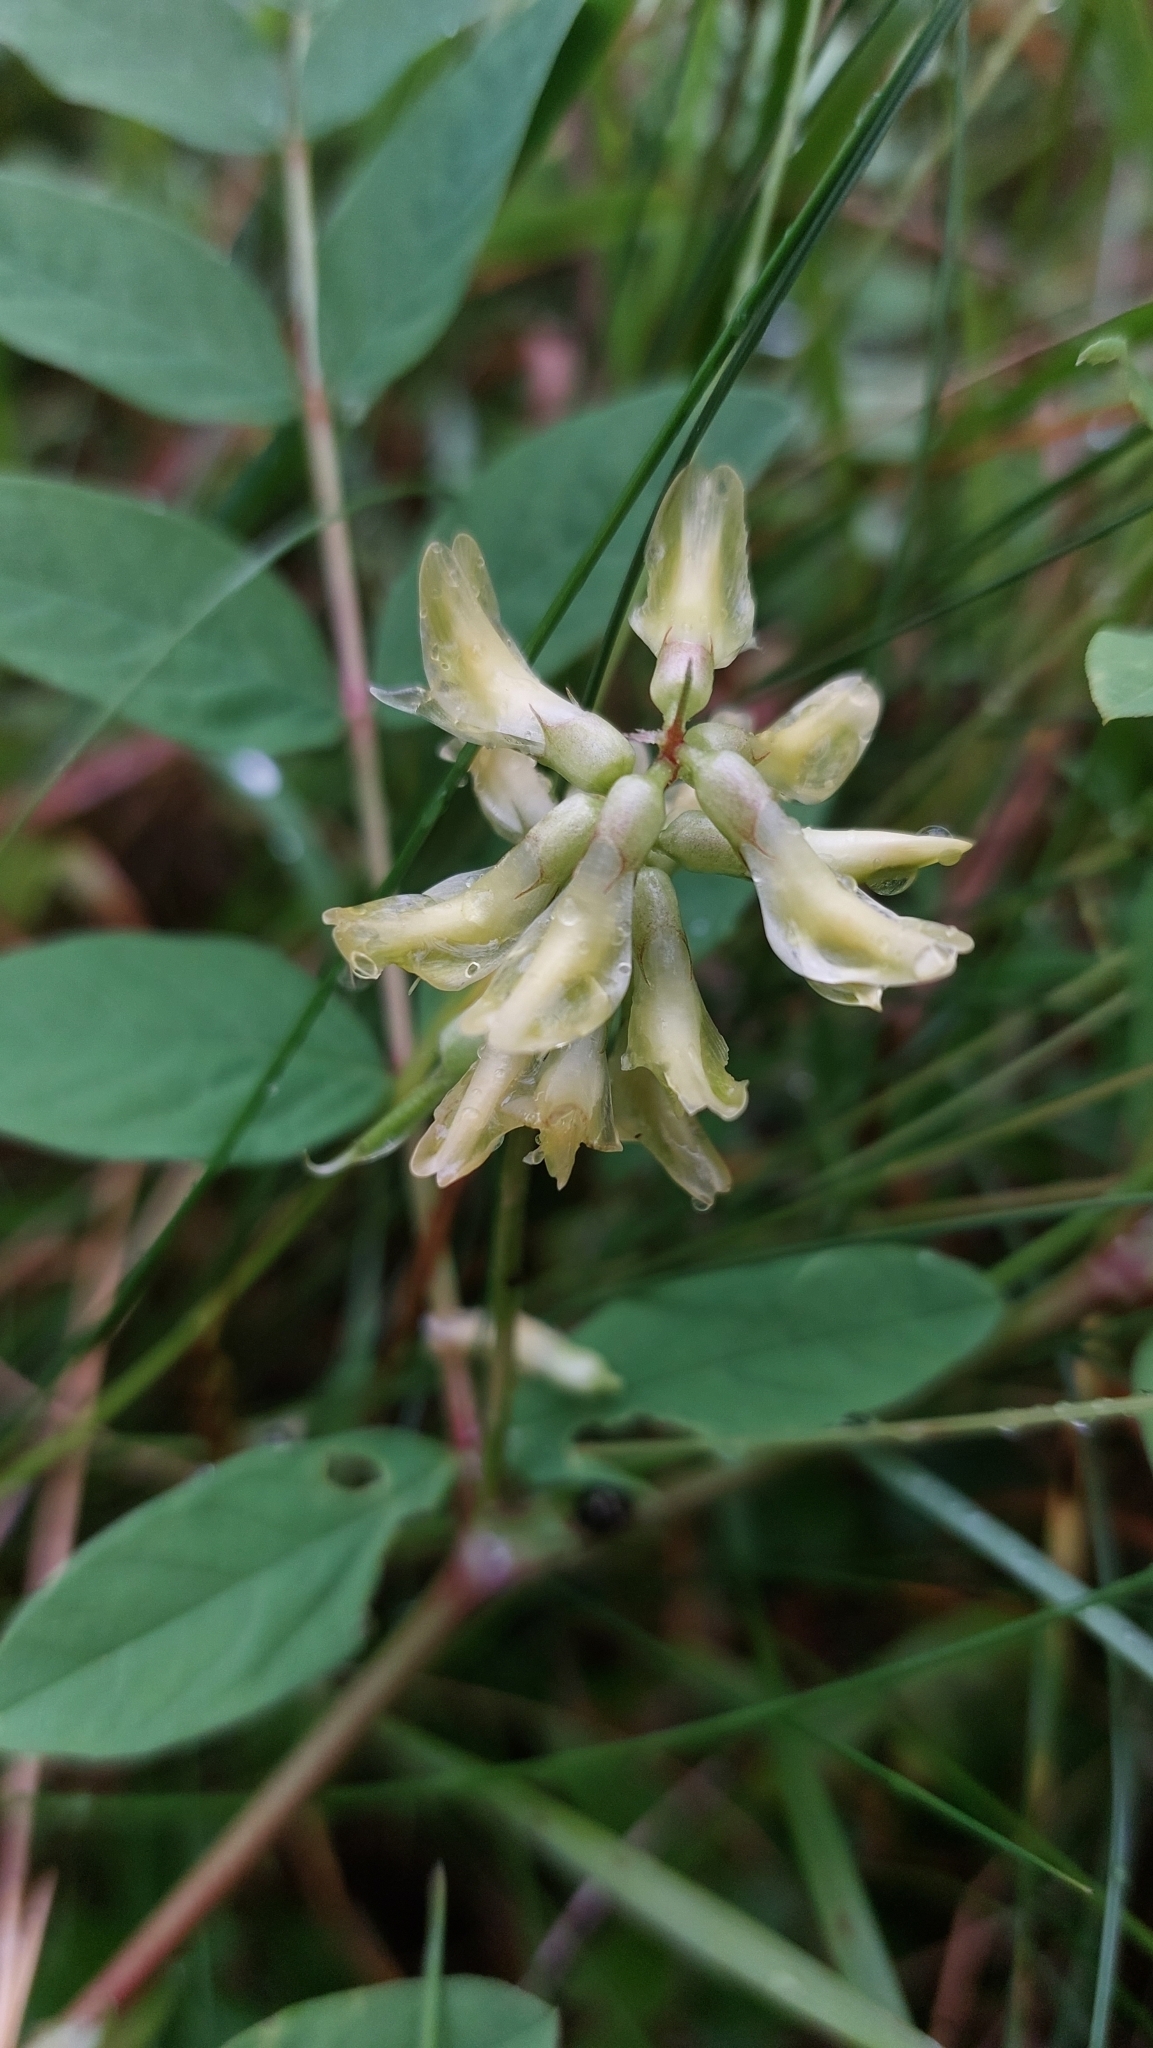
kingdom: Plantae
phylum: Tracheophyta
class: Magnoliopsida
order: Fabales
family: Fabaceae
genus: Astragalus
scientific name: Astragalus glycyphyllos
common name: Wild liquorice
